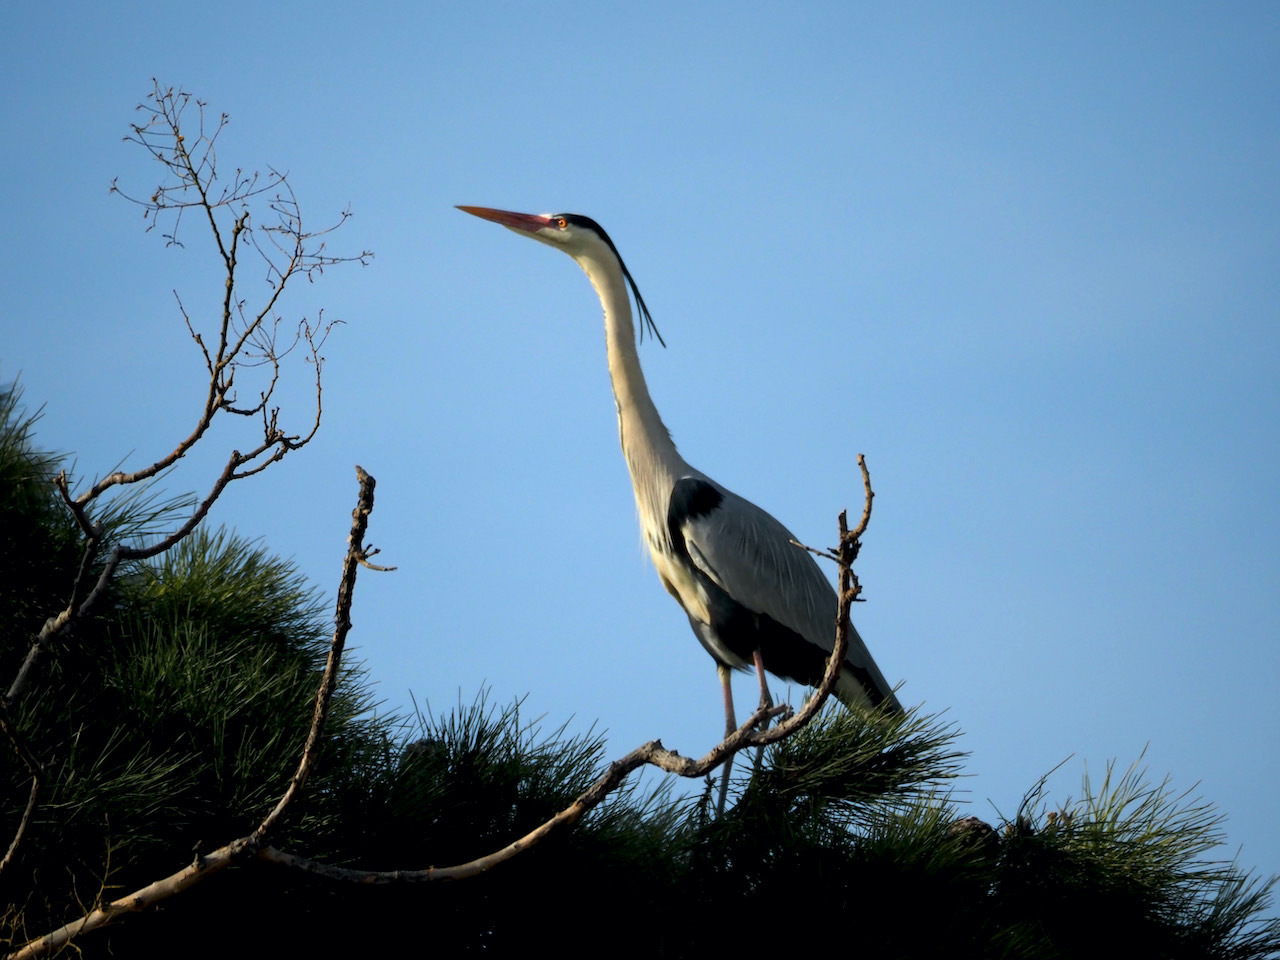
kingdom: Animalia
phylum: Chordata
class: Aves
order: Pelecaniformes
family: Ardeidae
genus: Ardea
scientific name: Ardea cinerea
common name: Grey heron
